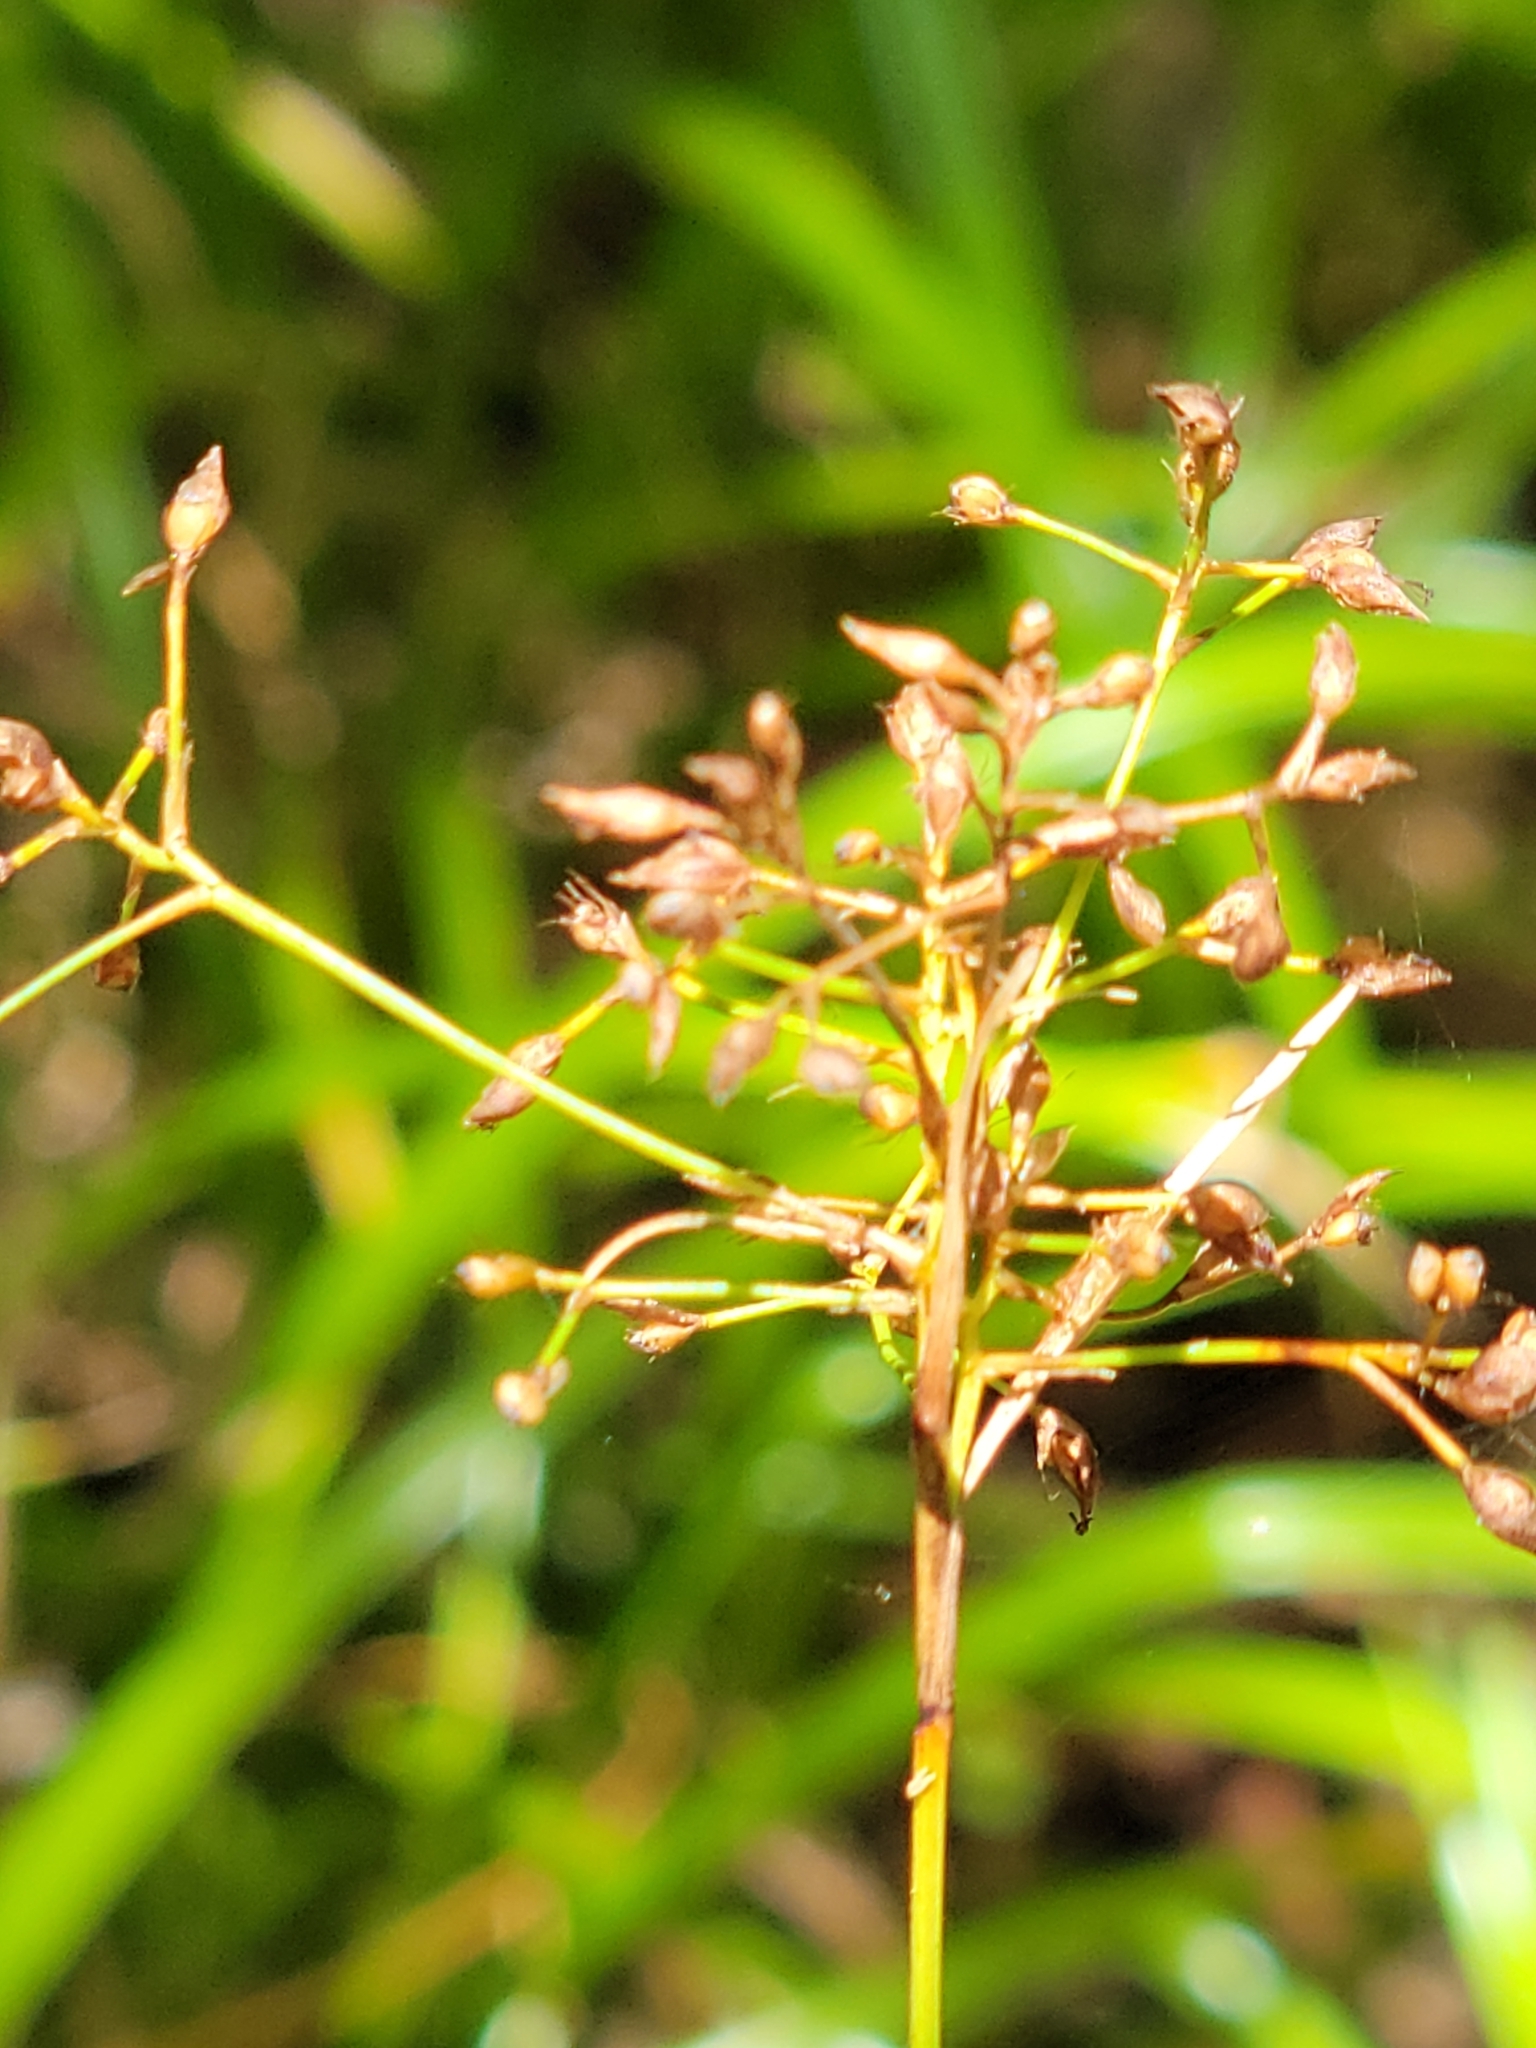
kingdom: Plantae
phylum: Tracheophyta
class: Liliopsida
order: Poales
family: Cyperaceae
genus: Rhynchospora
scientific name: Rhynchospora miliacea
